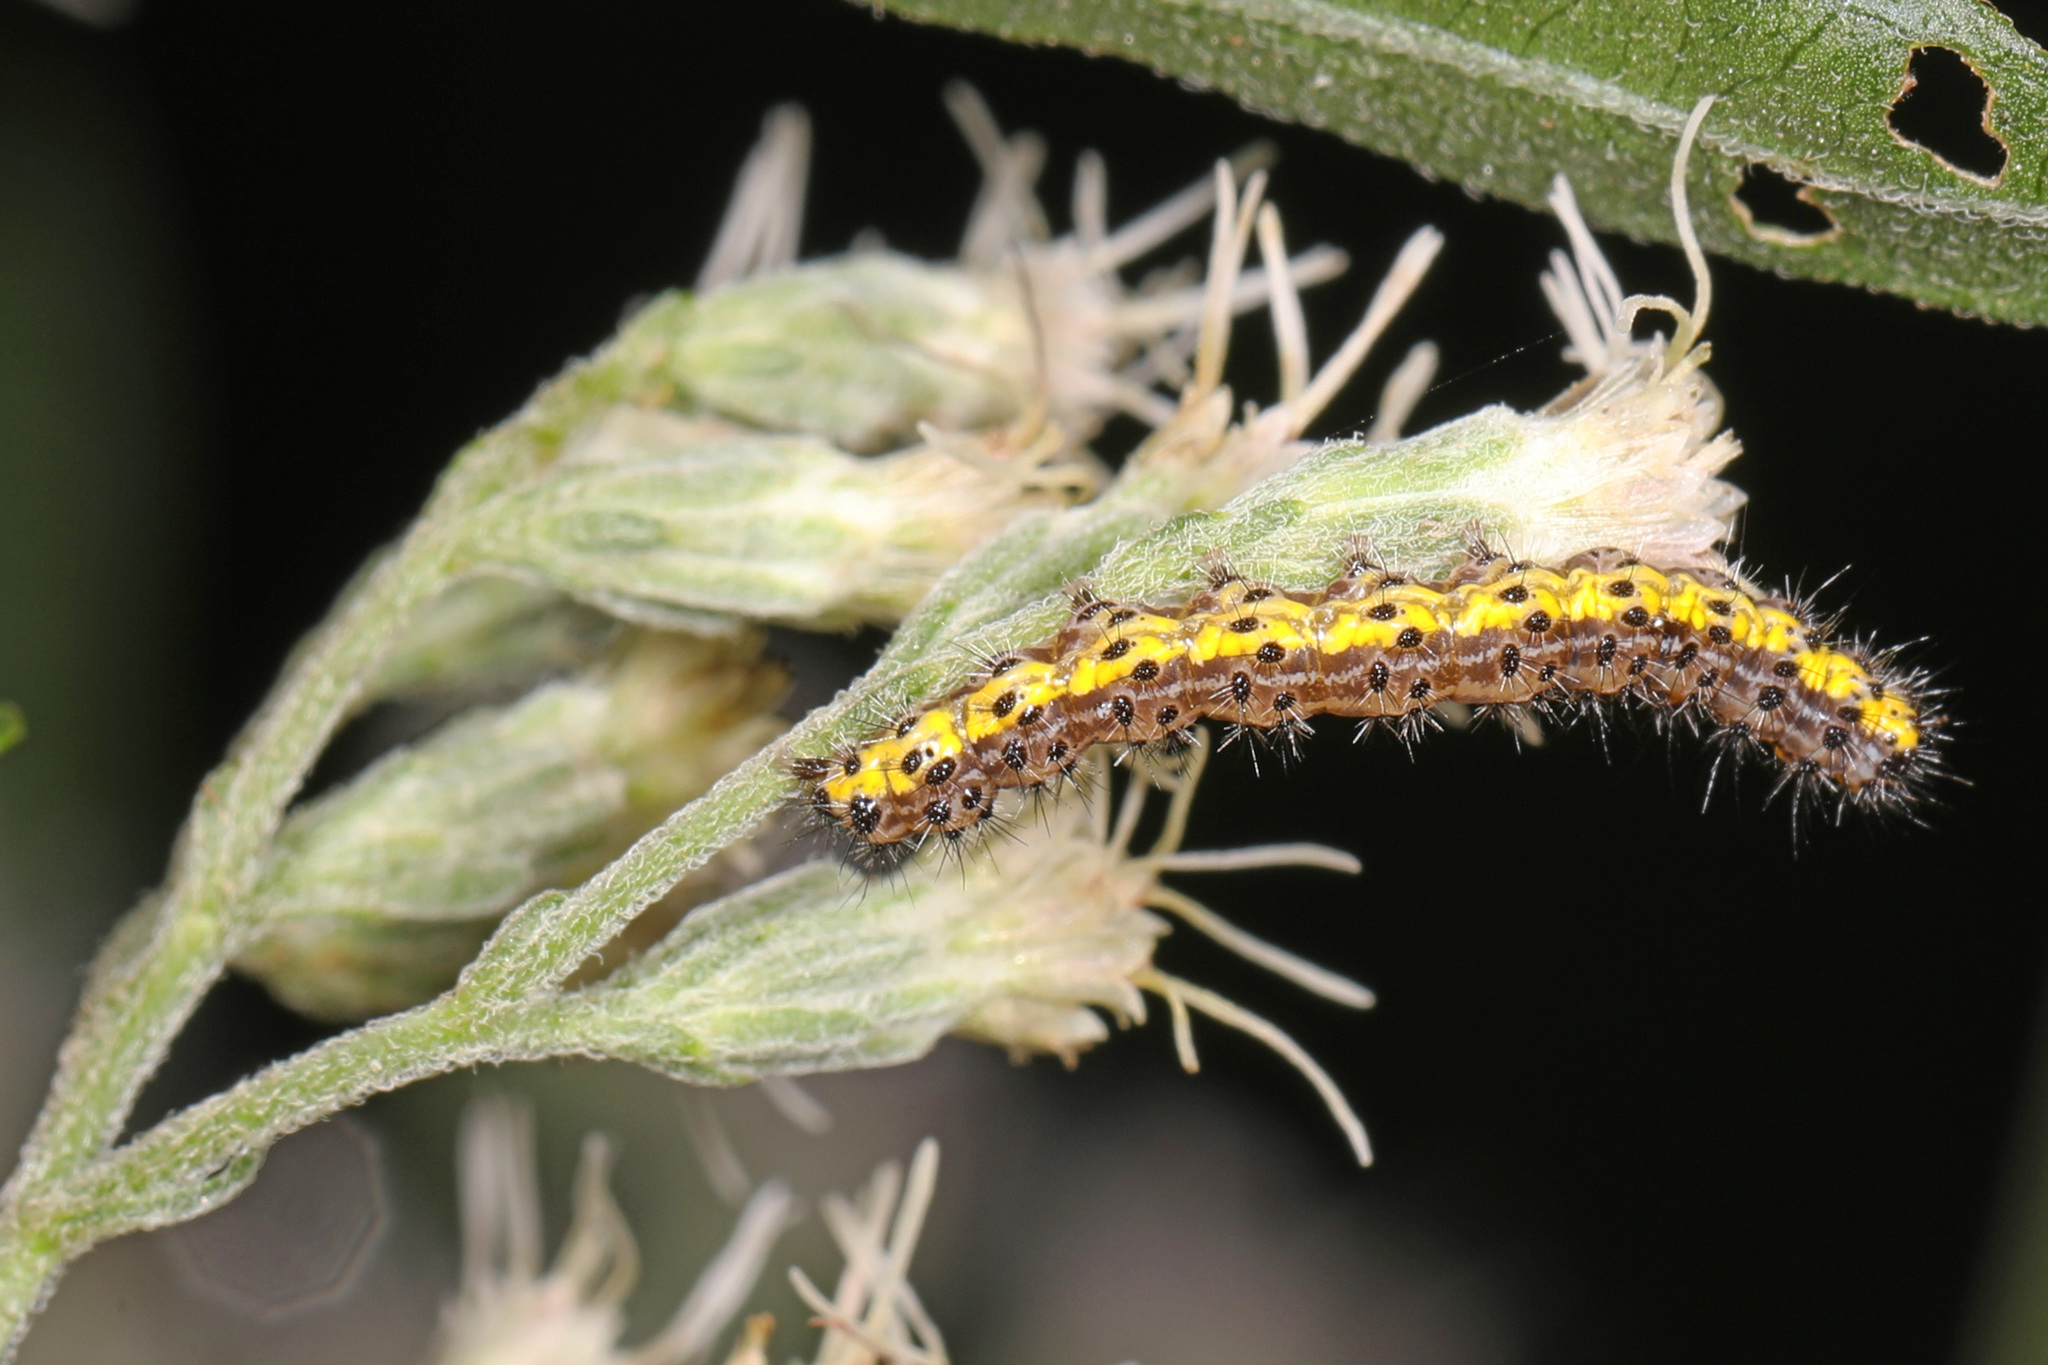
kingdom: Animalia
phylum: Arthropoda
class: Insecta
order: Lepidoptera
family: Erebidae
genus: Haploa
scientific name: Haploa contigua
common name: Neighbor moth
